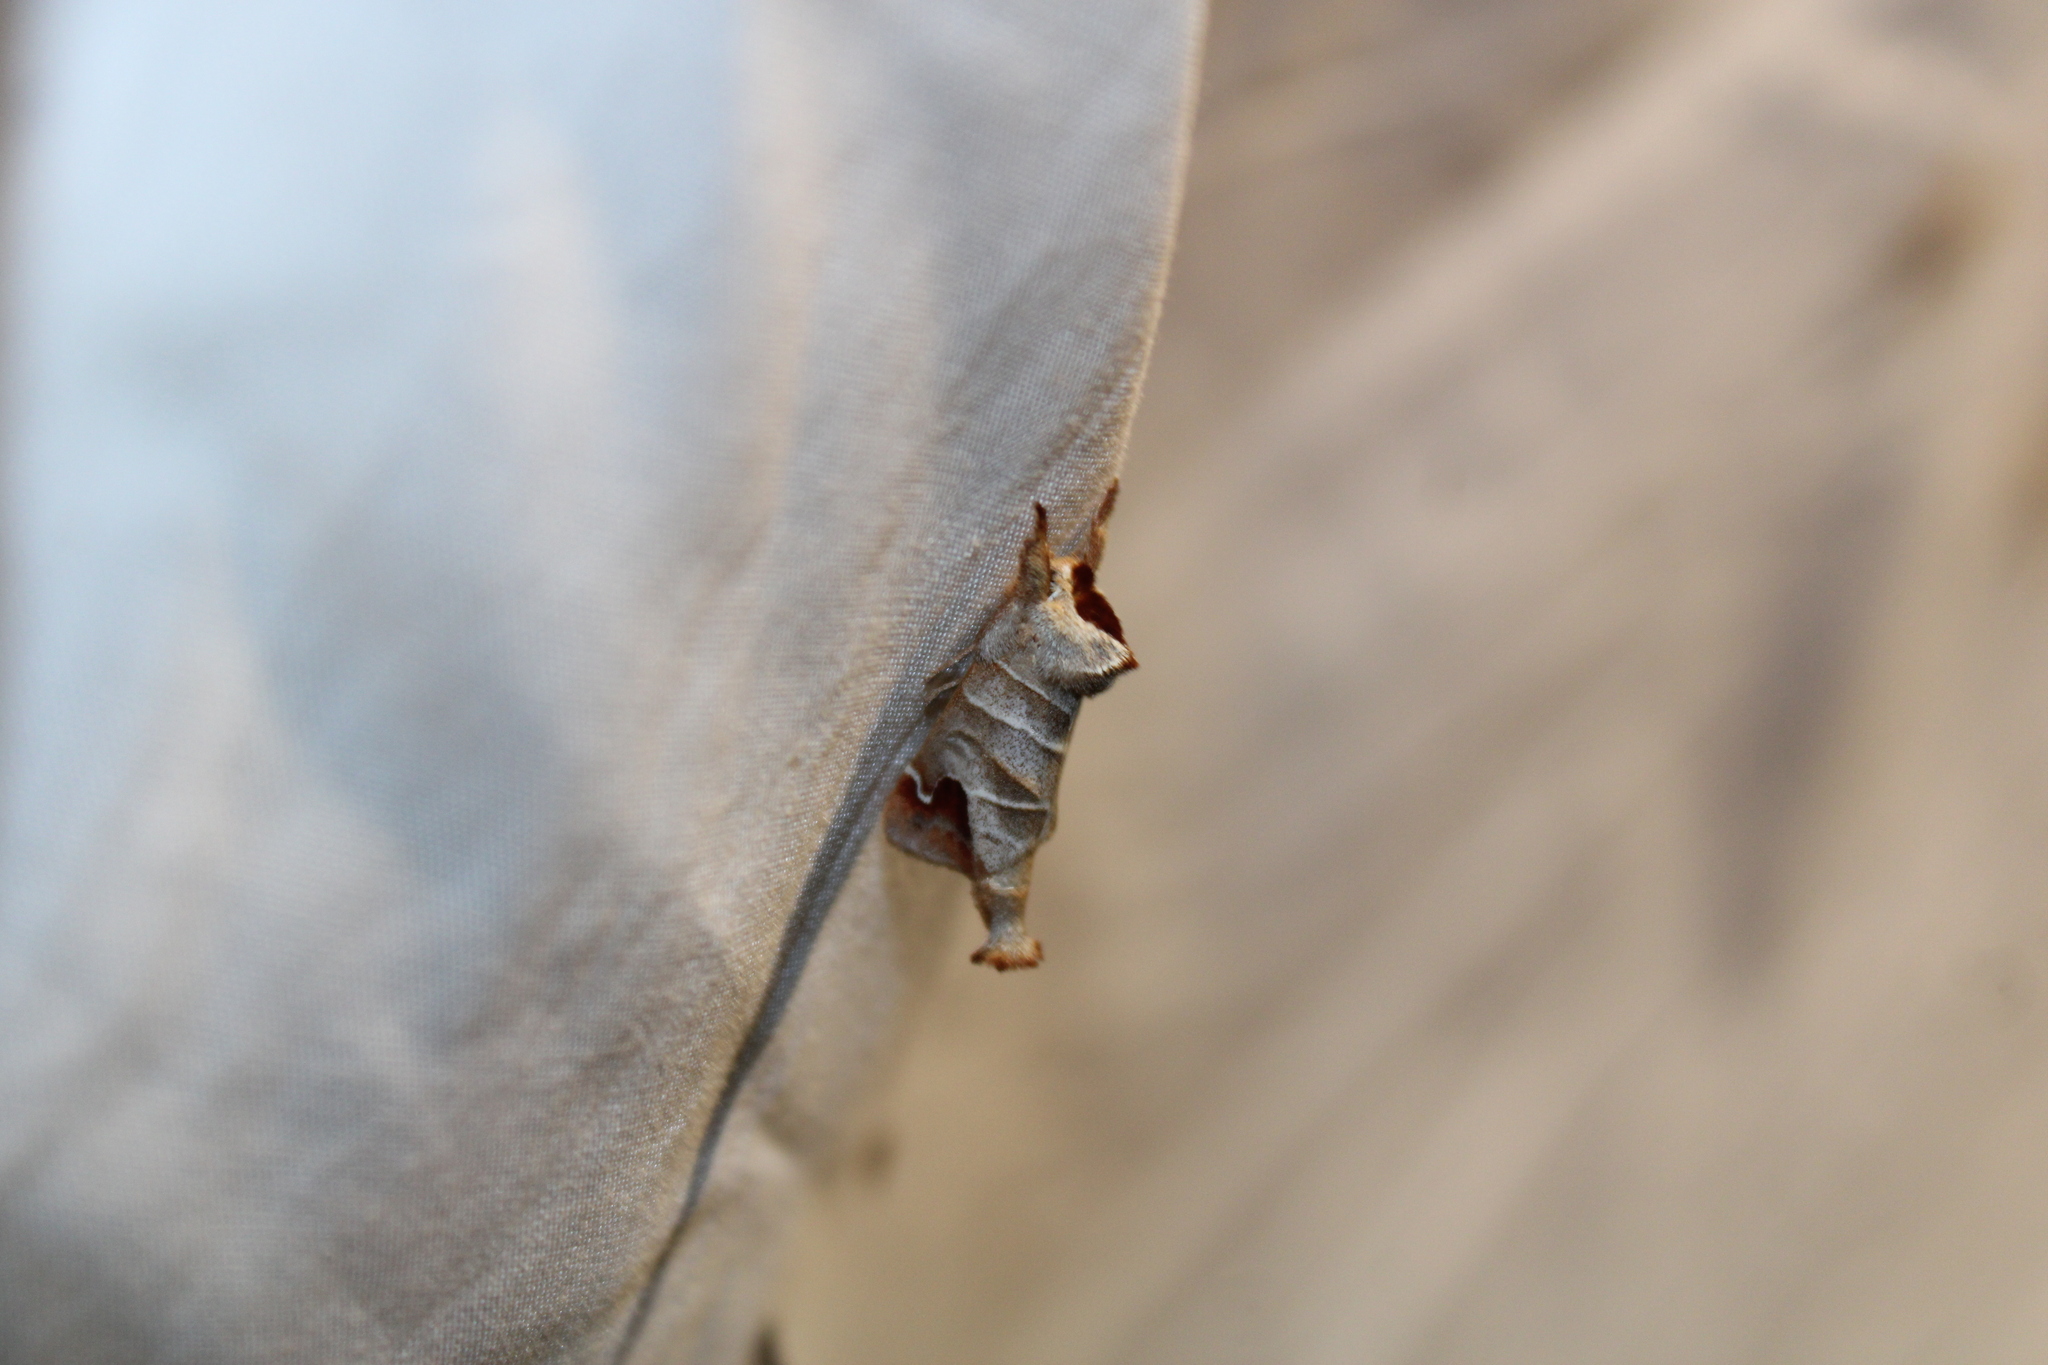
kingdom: Animalia
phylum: Arthropoda
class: Insecta
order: Lepidoptera
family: Notodontidae
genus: Clostera
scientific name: Clostera albosigma
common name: Sigmoid prominent
